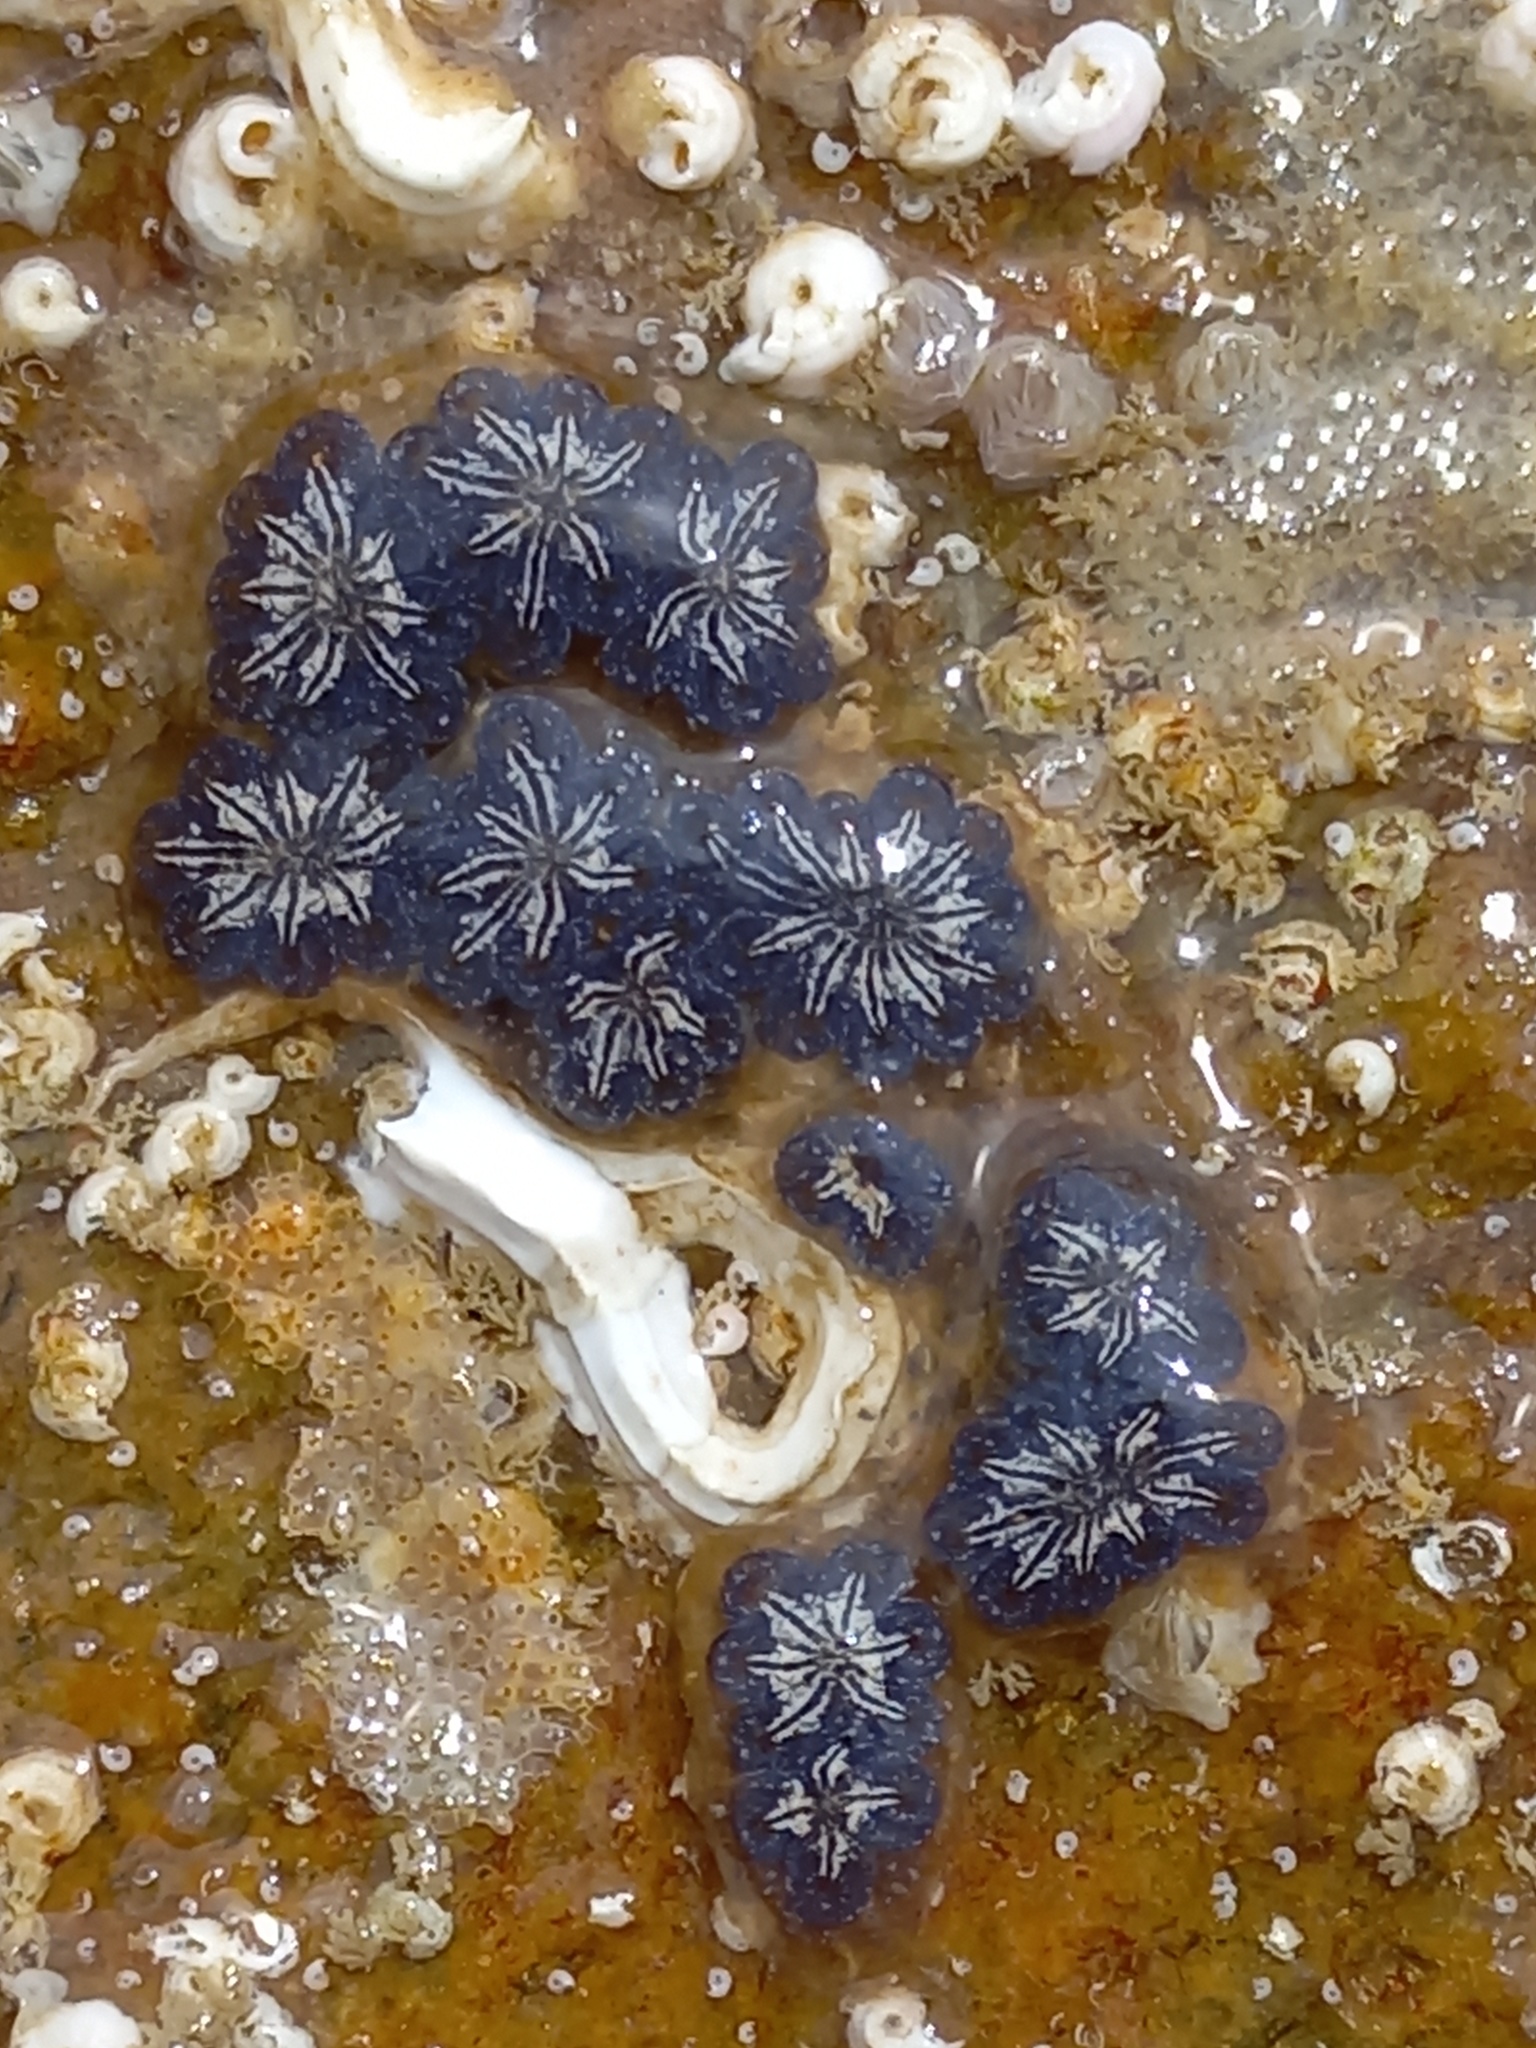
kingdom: Animalia
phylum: Chordata
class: Ascidiacea
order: Stolidobranchia
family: Styelidae
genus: Botryllus
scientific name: Botryllus schlosseri
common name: Golden star tunicate
